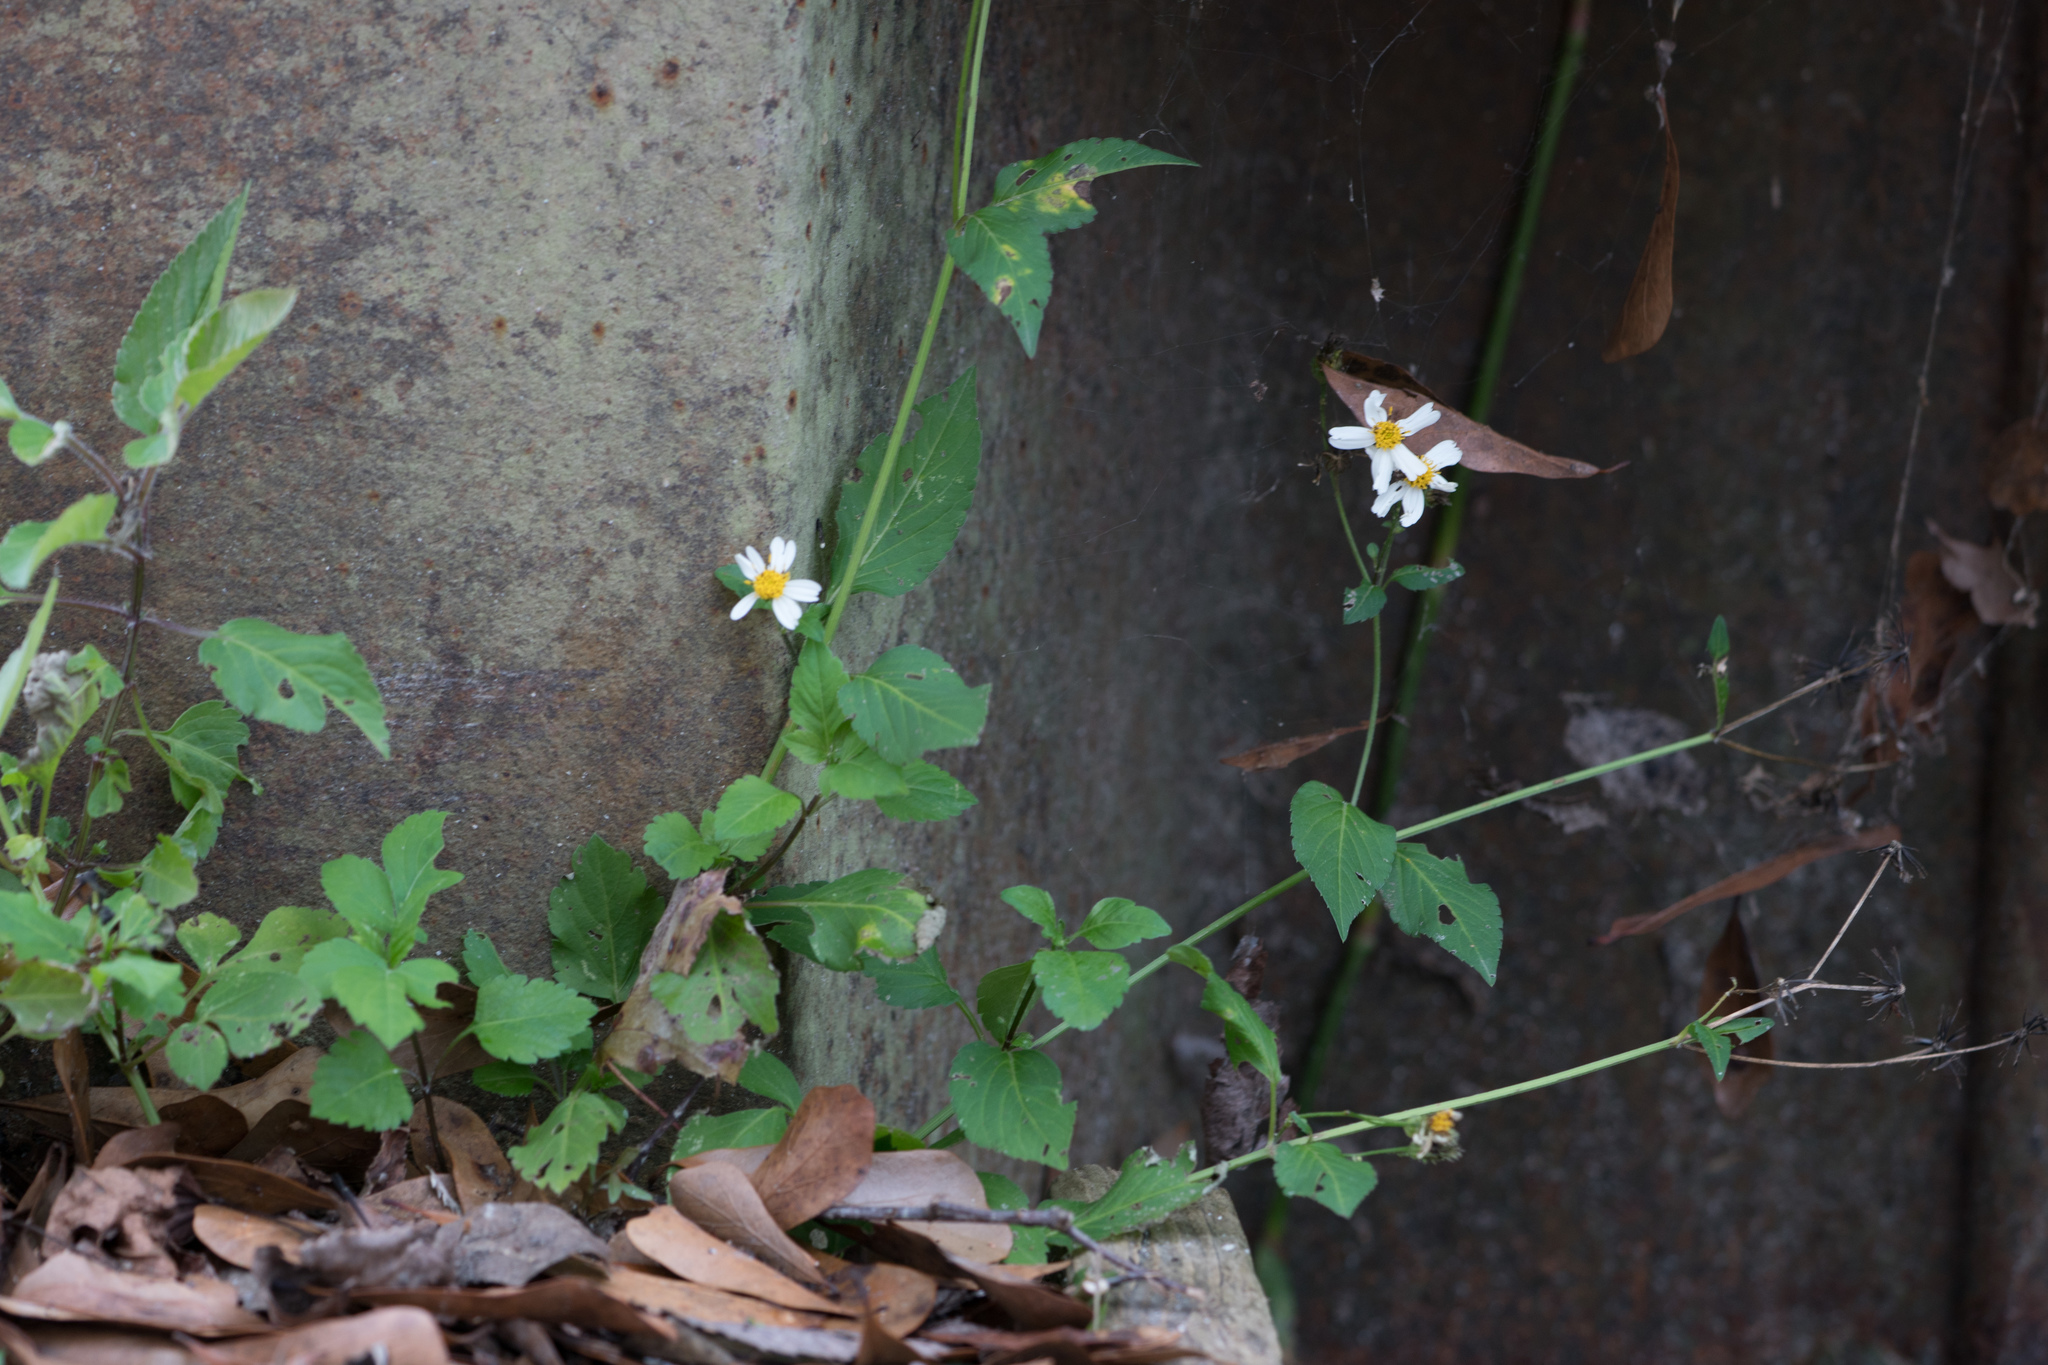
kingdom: Plantae
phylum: Tracheophyta
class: Magnoliopsida
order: Asterales
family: Asteraceae
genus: Bidens
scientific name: Bidens alba
